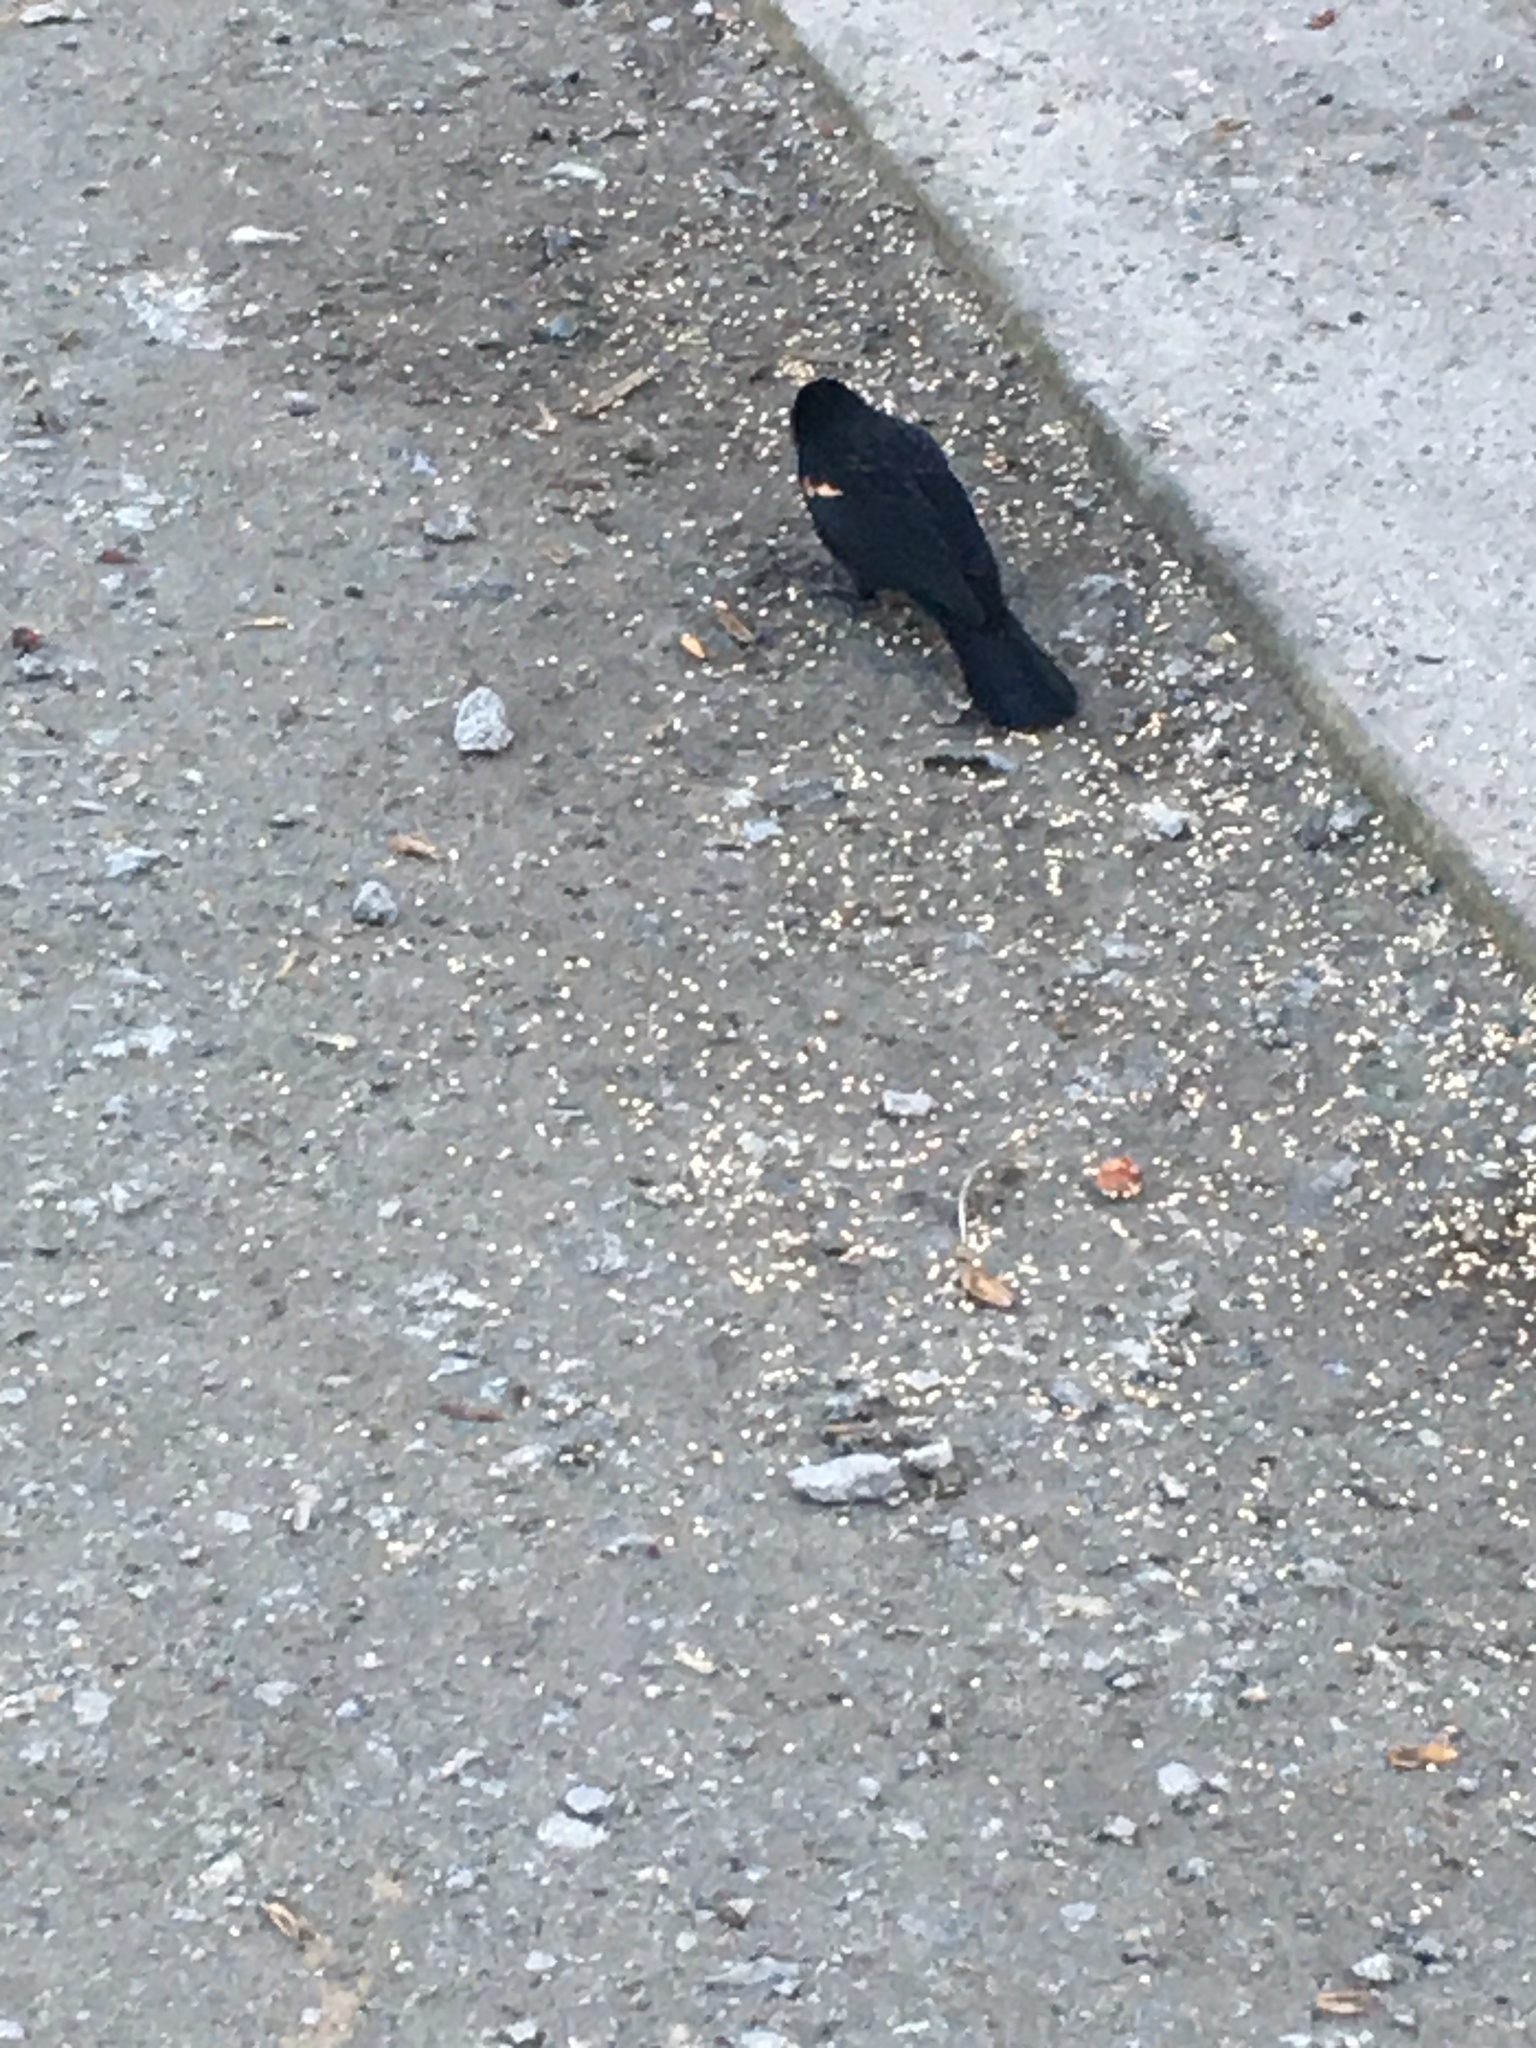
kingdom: Animalia
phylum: Chordata
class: Aves
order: Passeriformes
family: Icteridae
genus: Agelaius
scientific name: Agelaius phoeniceus
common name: Red-winged blackbird
